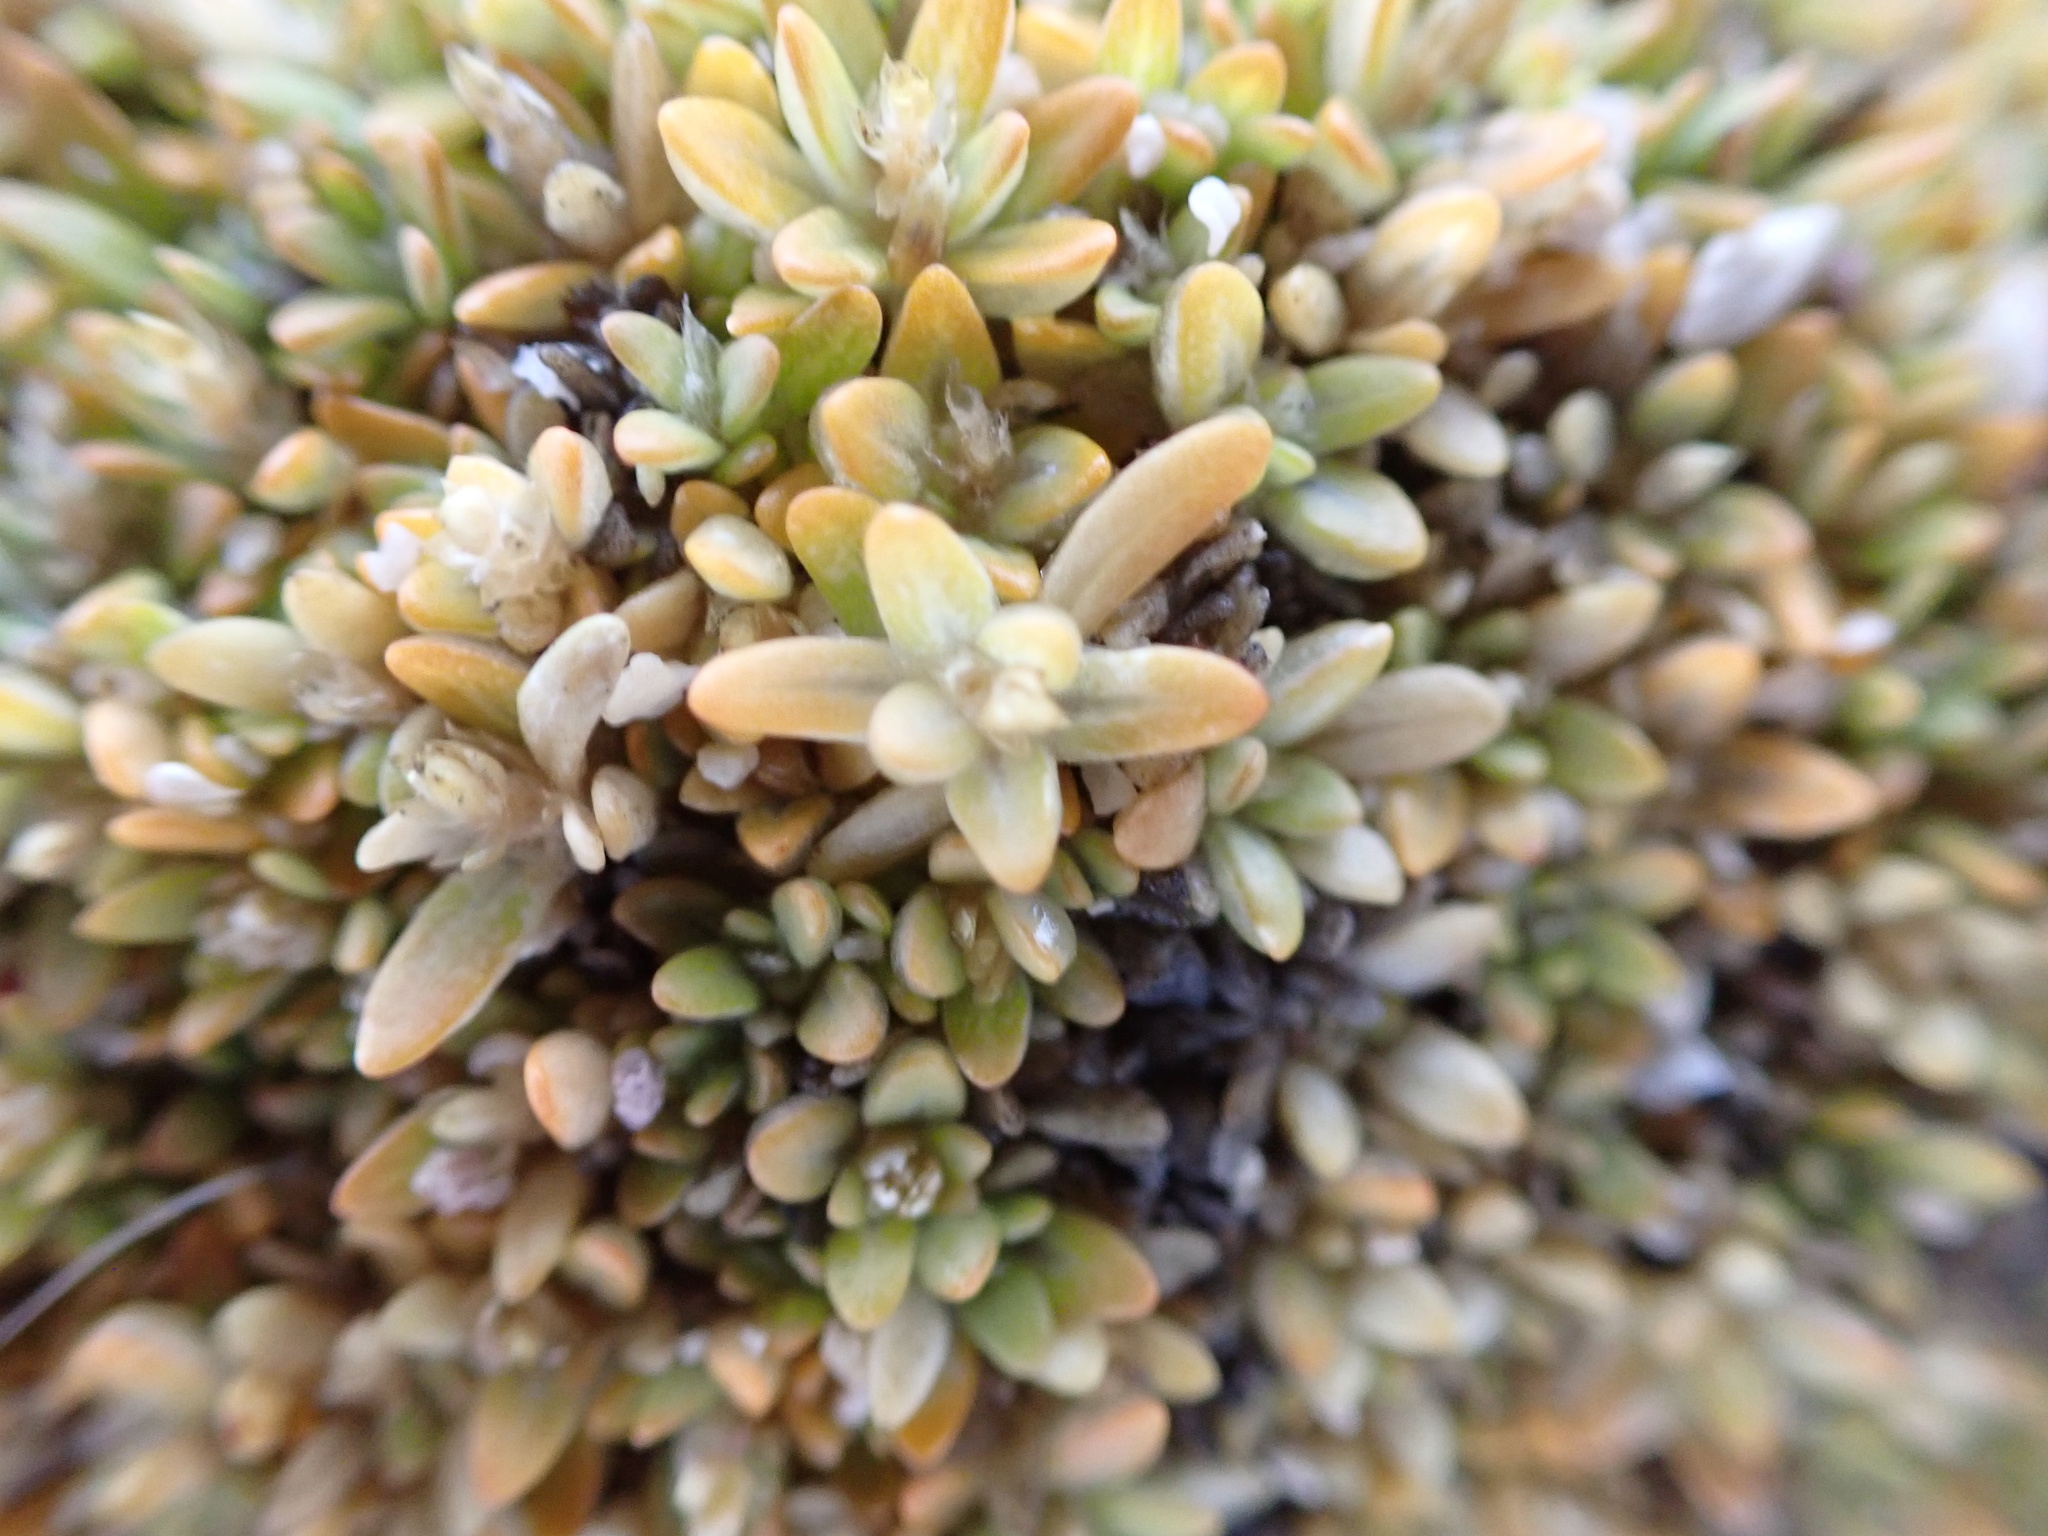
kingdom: Plantae
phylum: Tracheophyta
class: Magnoliopsida
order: Caryophyllales
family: Amaranthaceae
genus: Gomphrena
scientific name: Gomphrena muscoides
